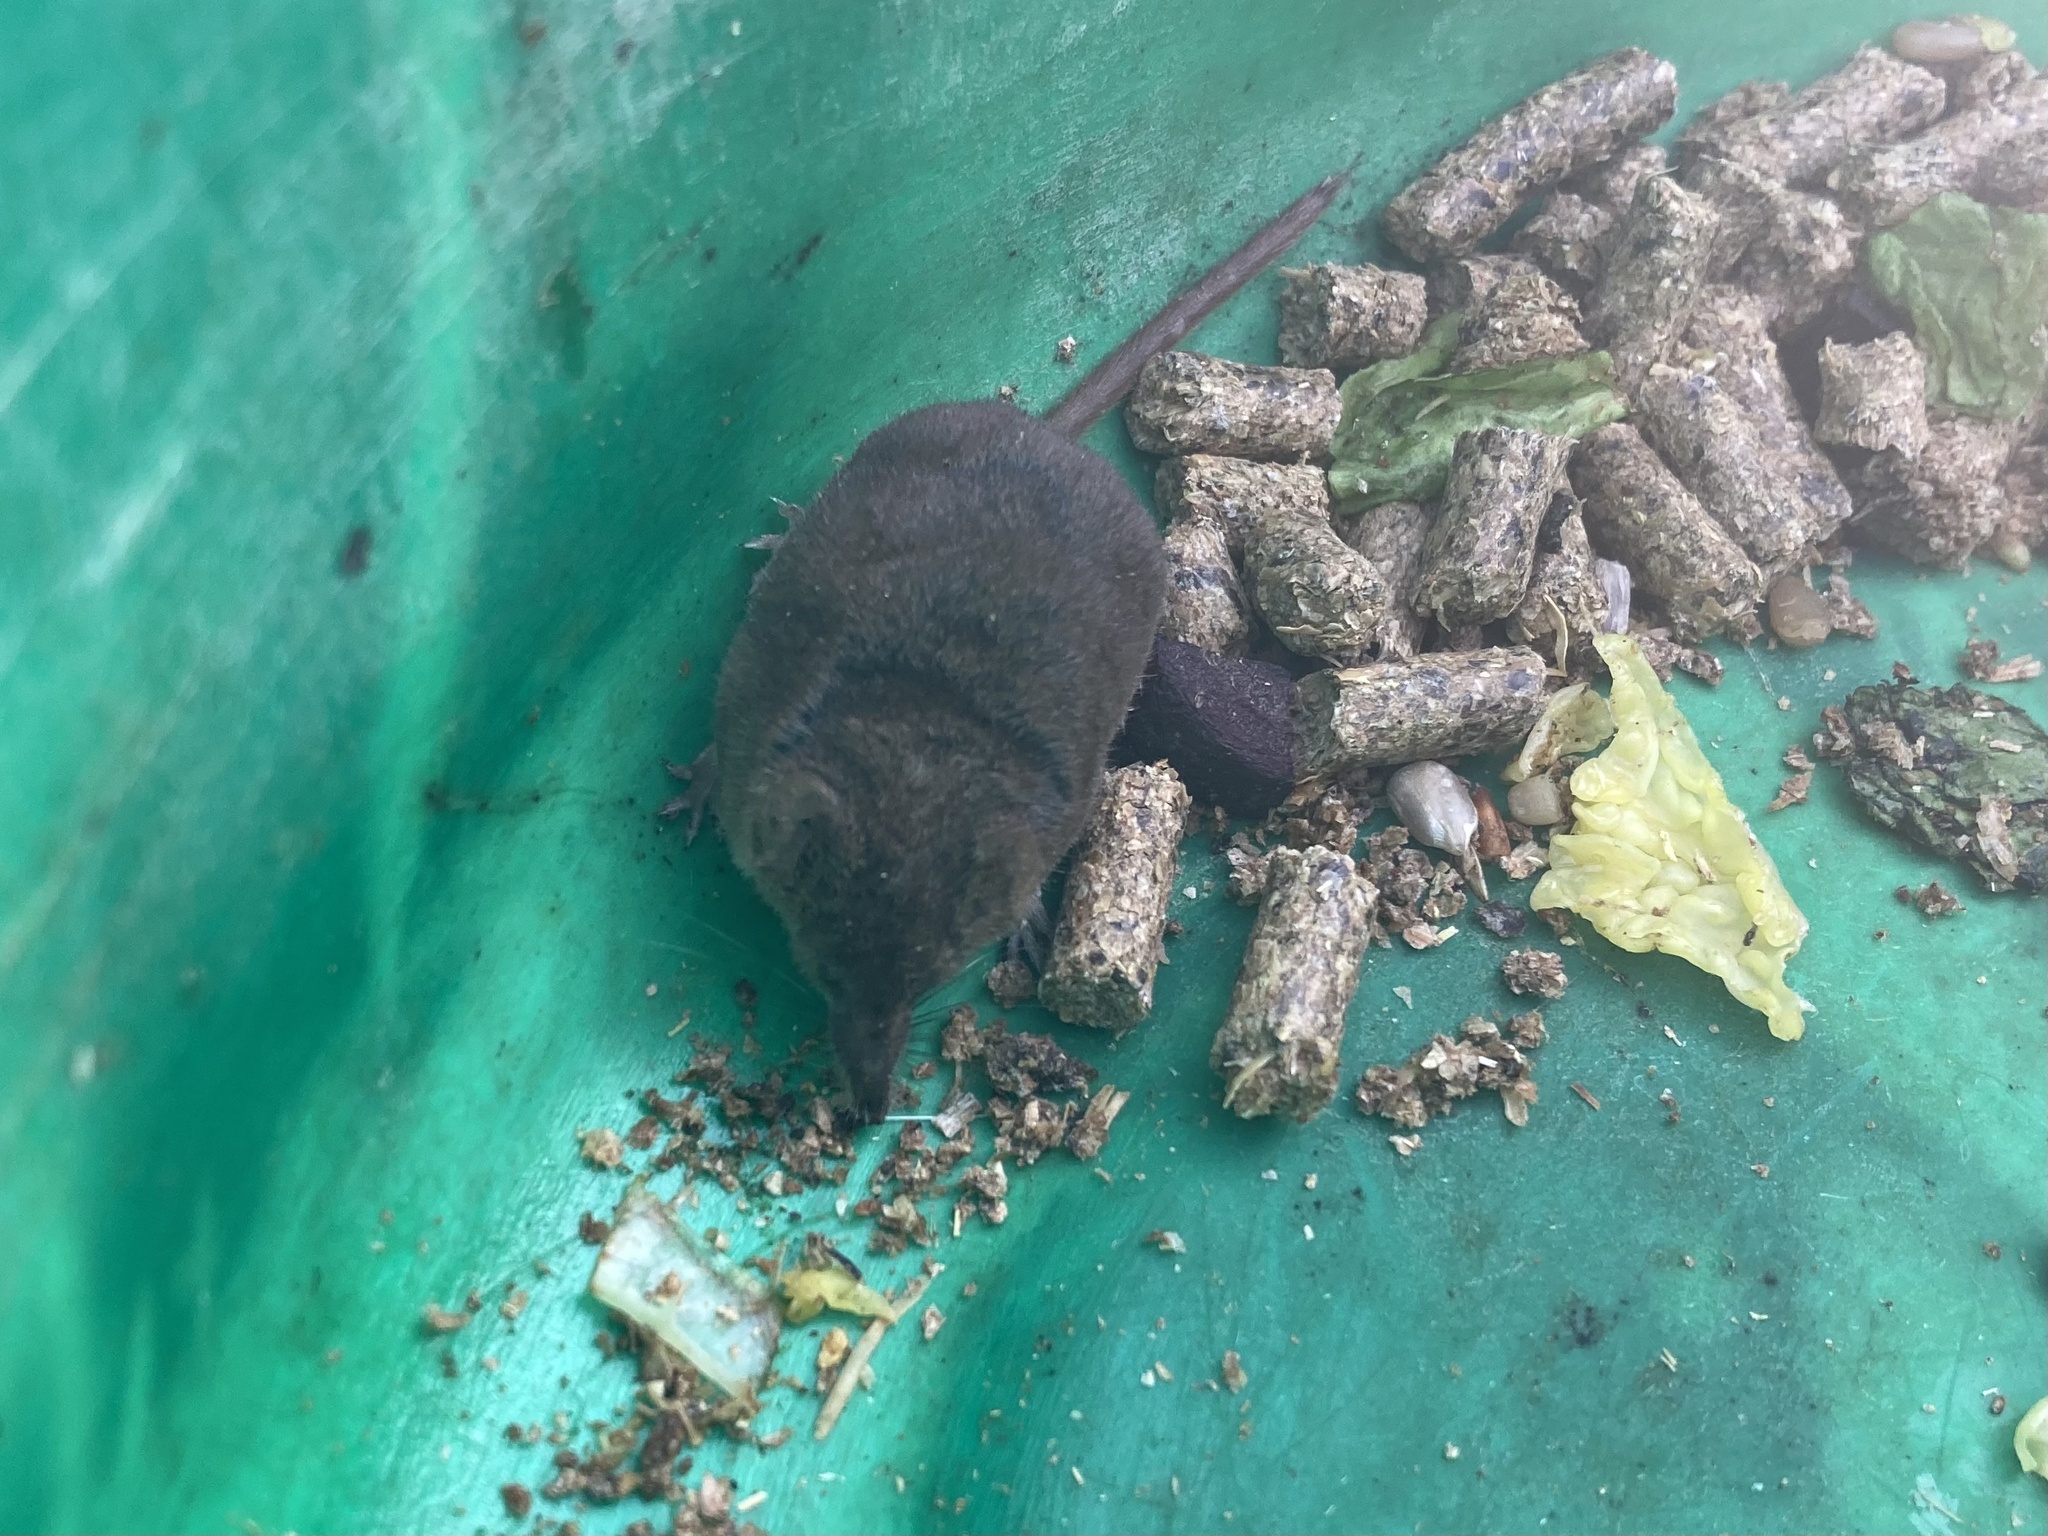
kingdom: Animalia
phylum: Chordata
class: Mammalia
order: Soricomorpha
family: Soricidae
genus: Sorex
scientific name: Sorex araneus
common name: Common shrew
